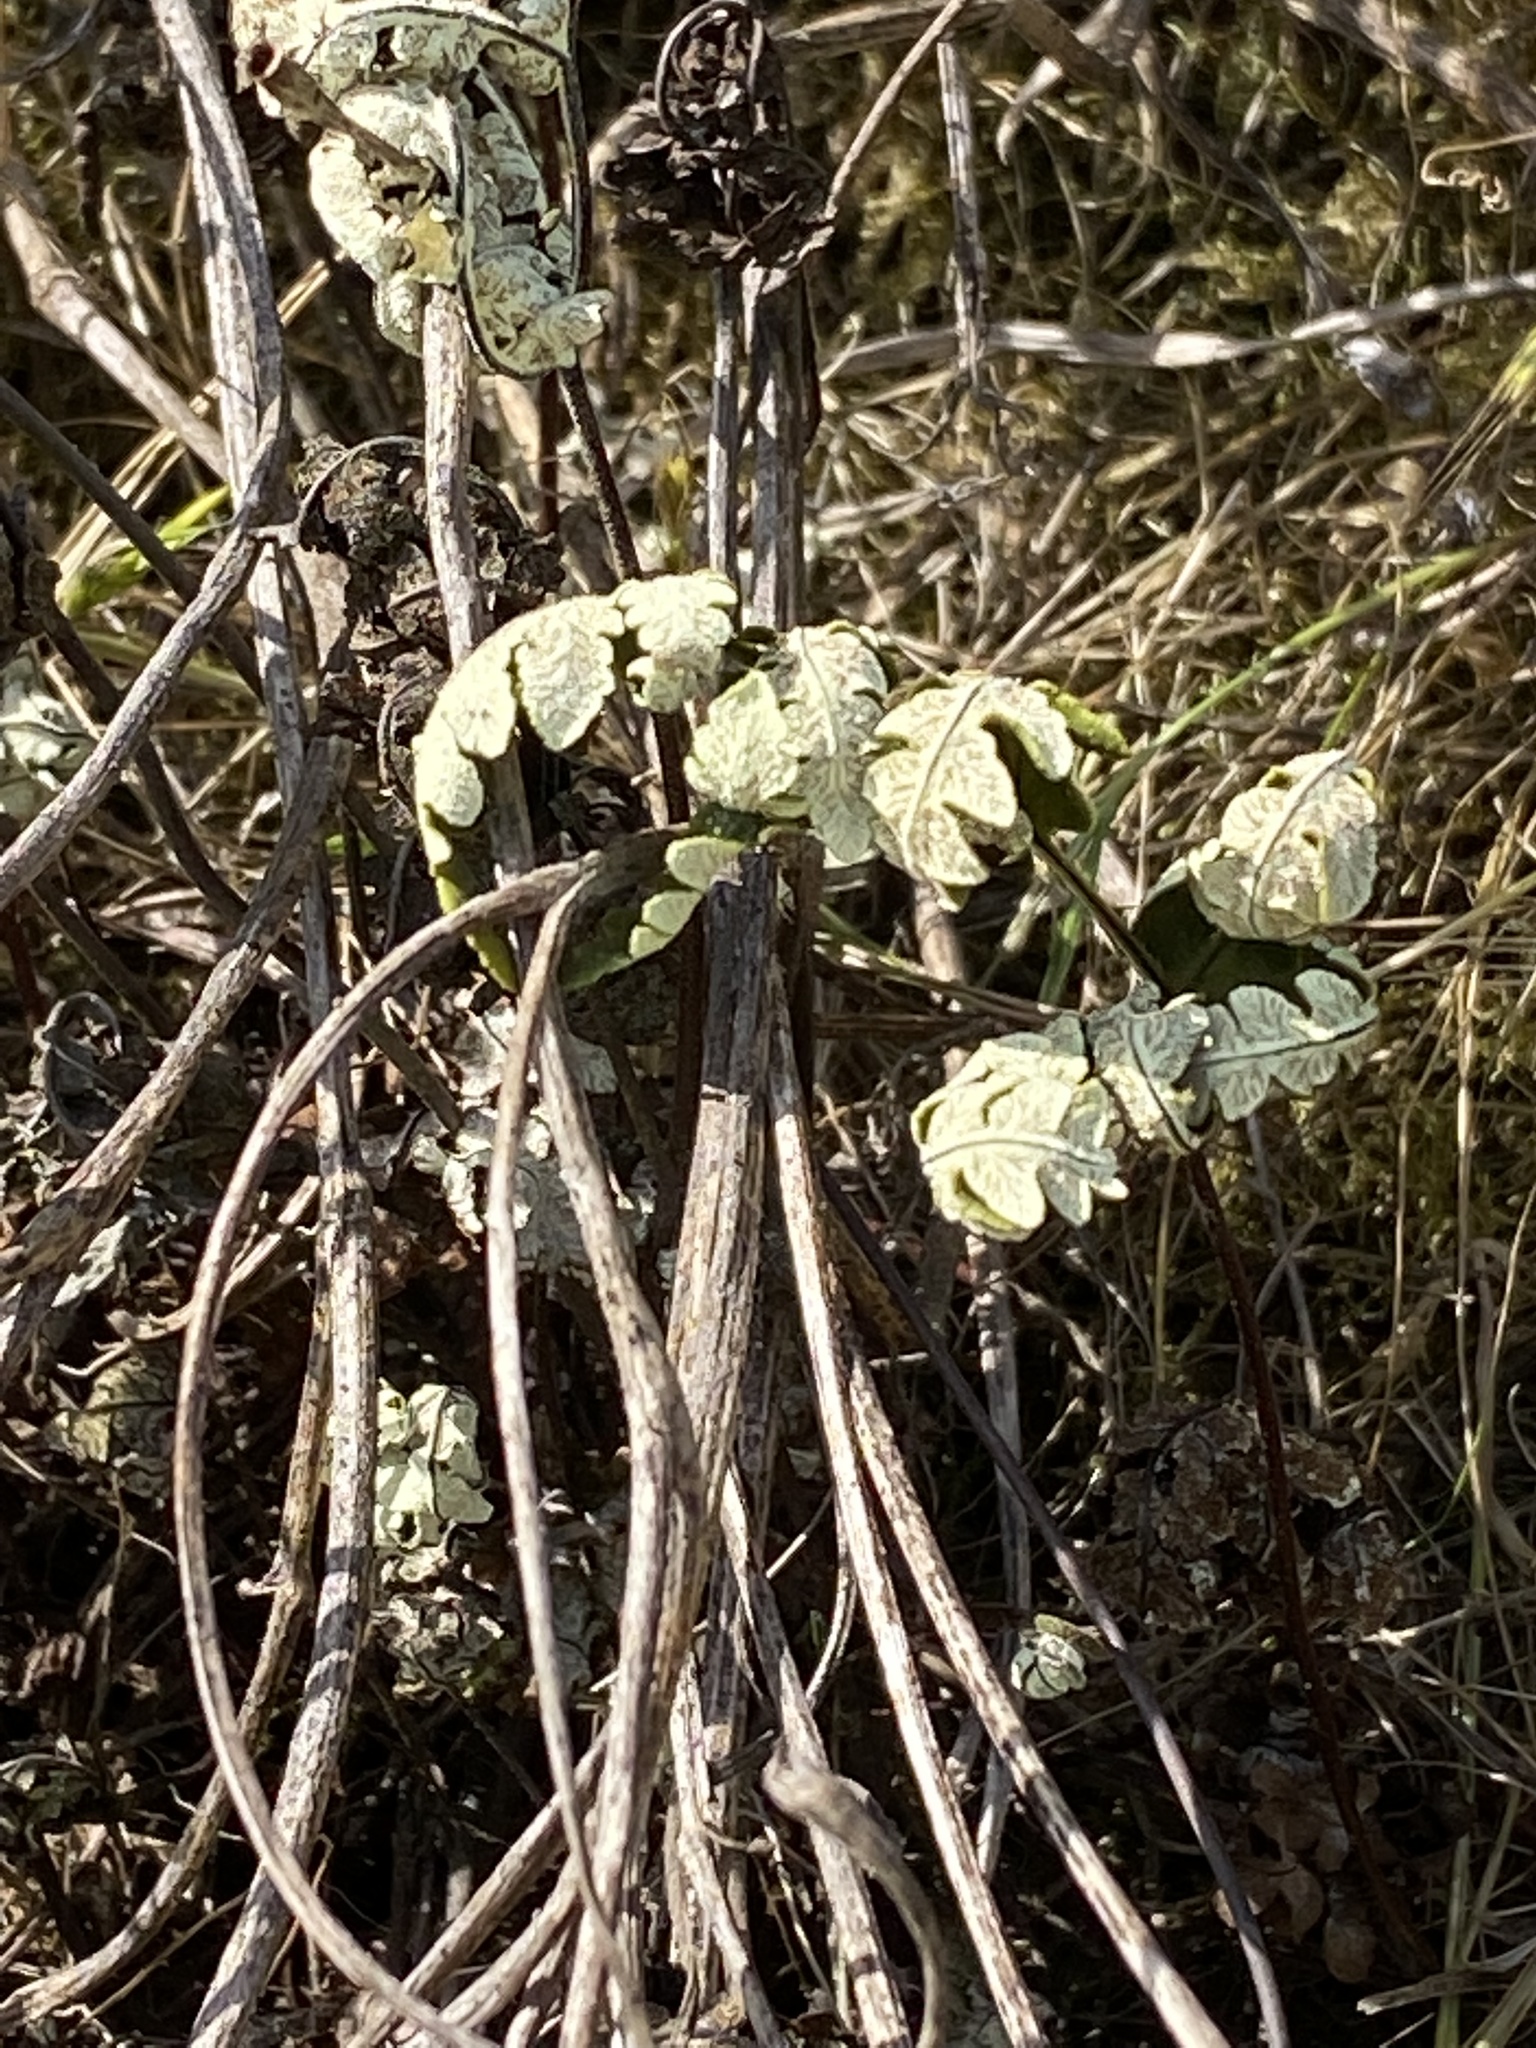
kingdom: Plantae
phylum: Tracheophyta
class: Polypodiopsida
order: Polypodiales
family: Pteridaceae
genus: Pentagramma
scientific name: Pentagramma triangularis
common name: Gold fern
